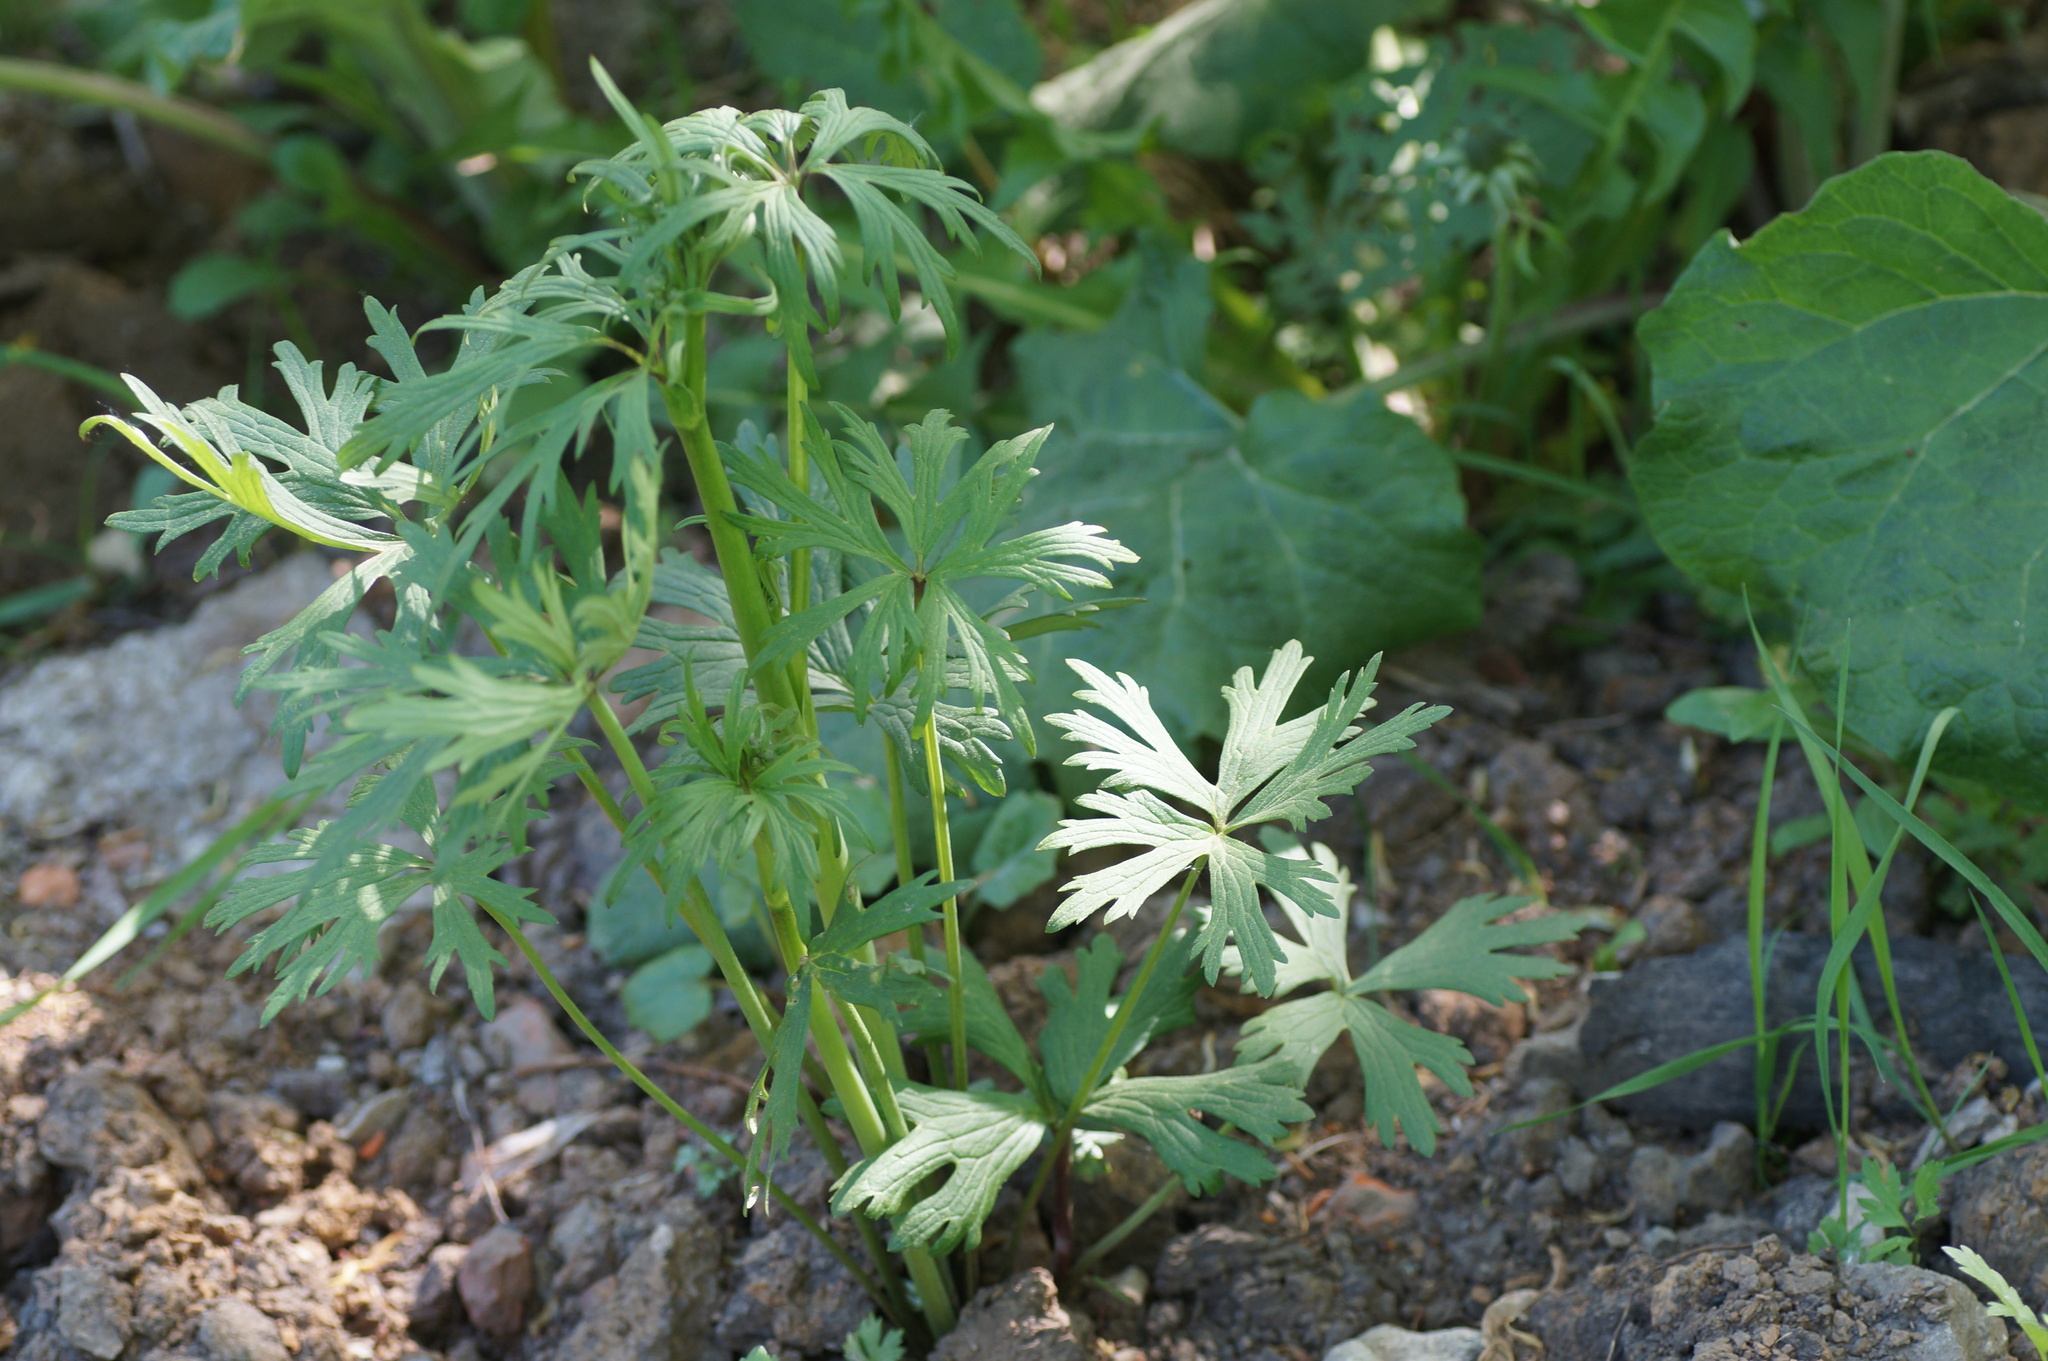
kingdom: Plantae
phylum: Tracheophyta
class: Magnoliopsida
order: Ranunculales
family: Ranunculaceae
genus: Ranunculus
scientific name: Ranunculus acris
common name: Meadow buttercup
